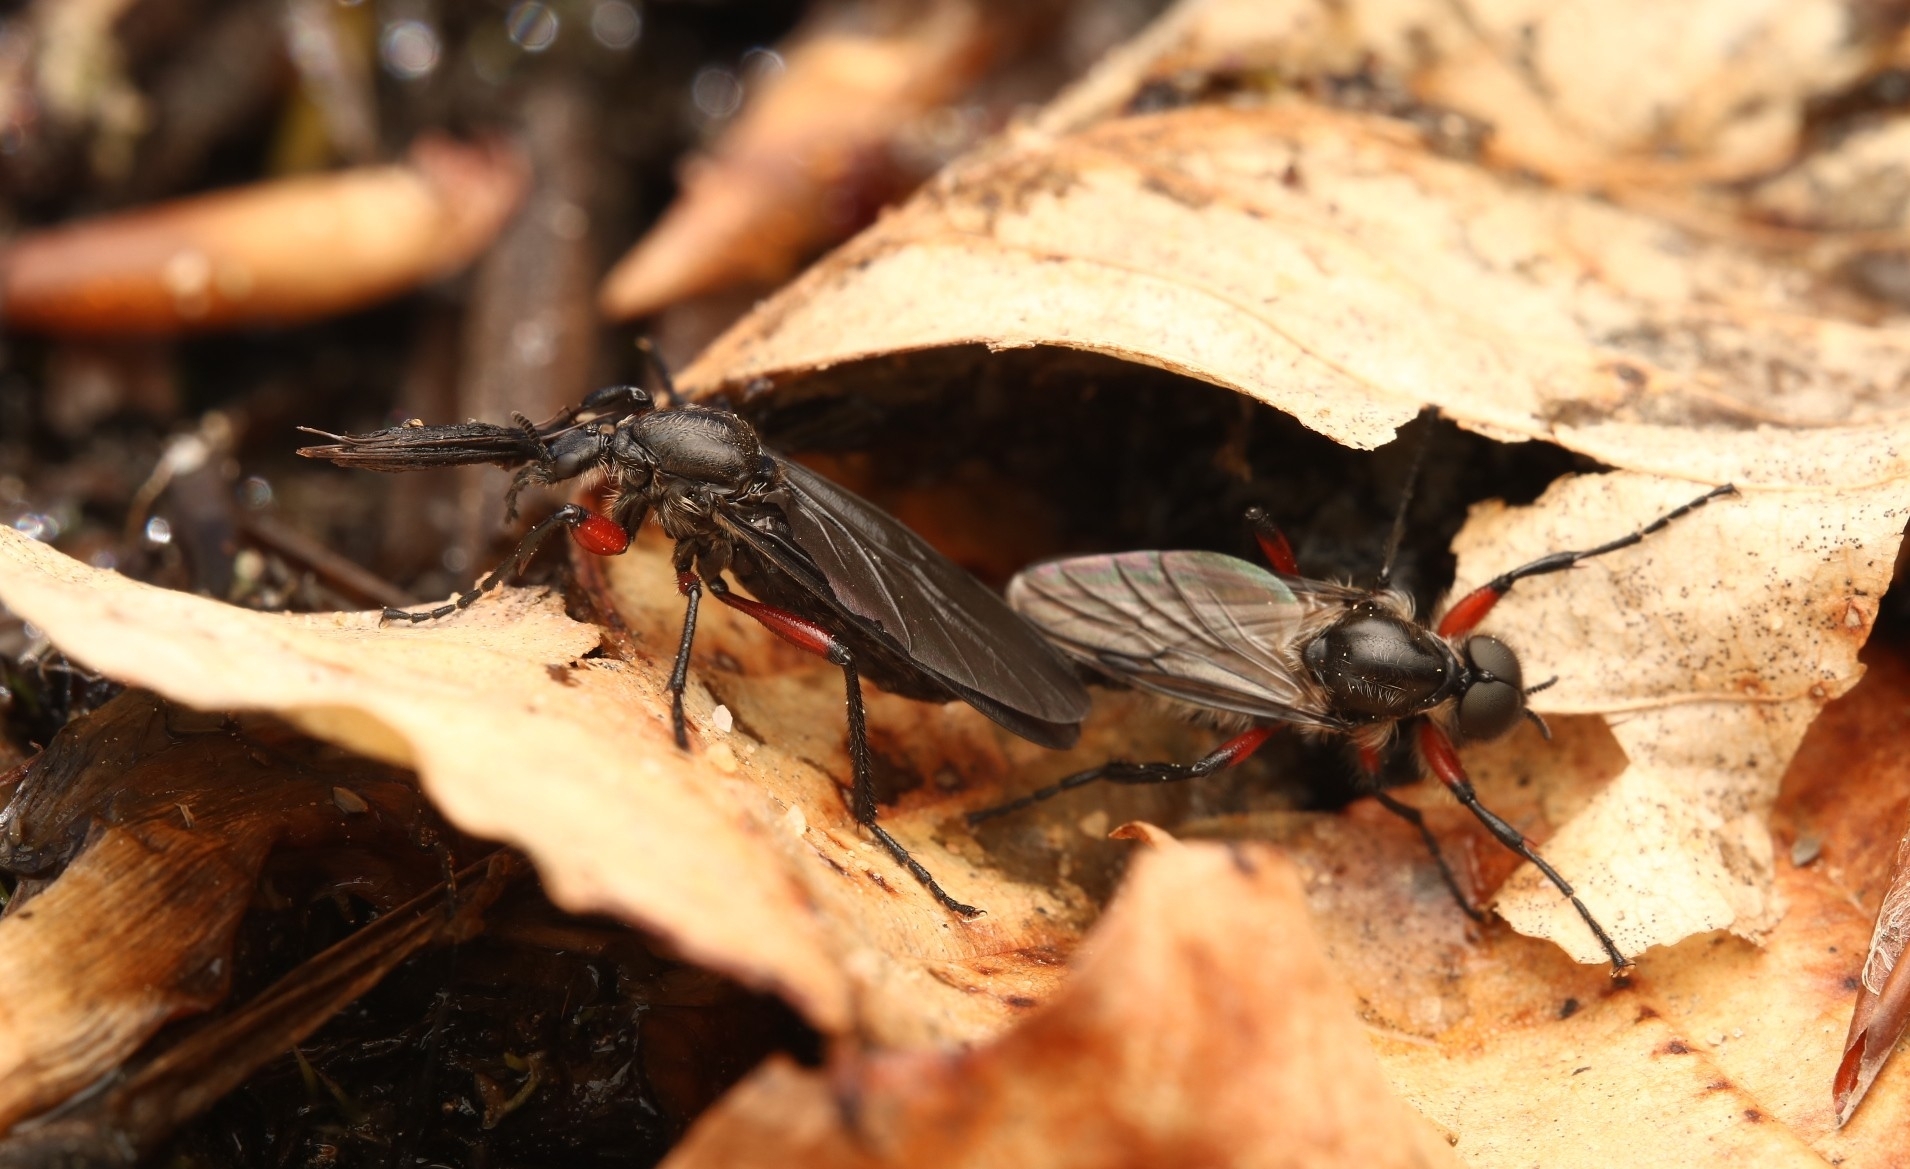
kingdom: Animalia
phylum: Arthropoda
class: Insecta
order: Diptera
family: Bibionidae
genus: Bibio
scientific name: Bibio femoratus
